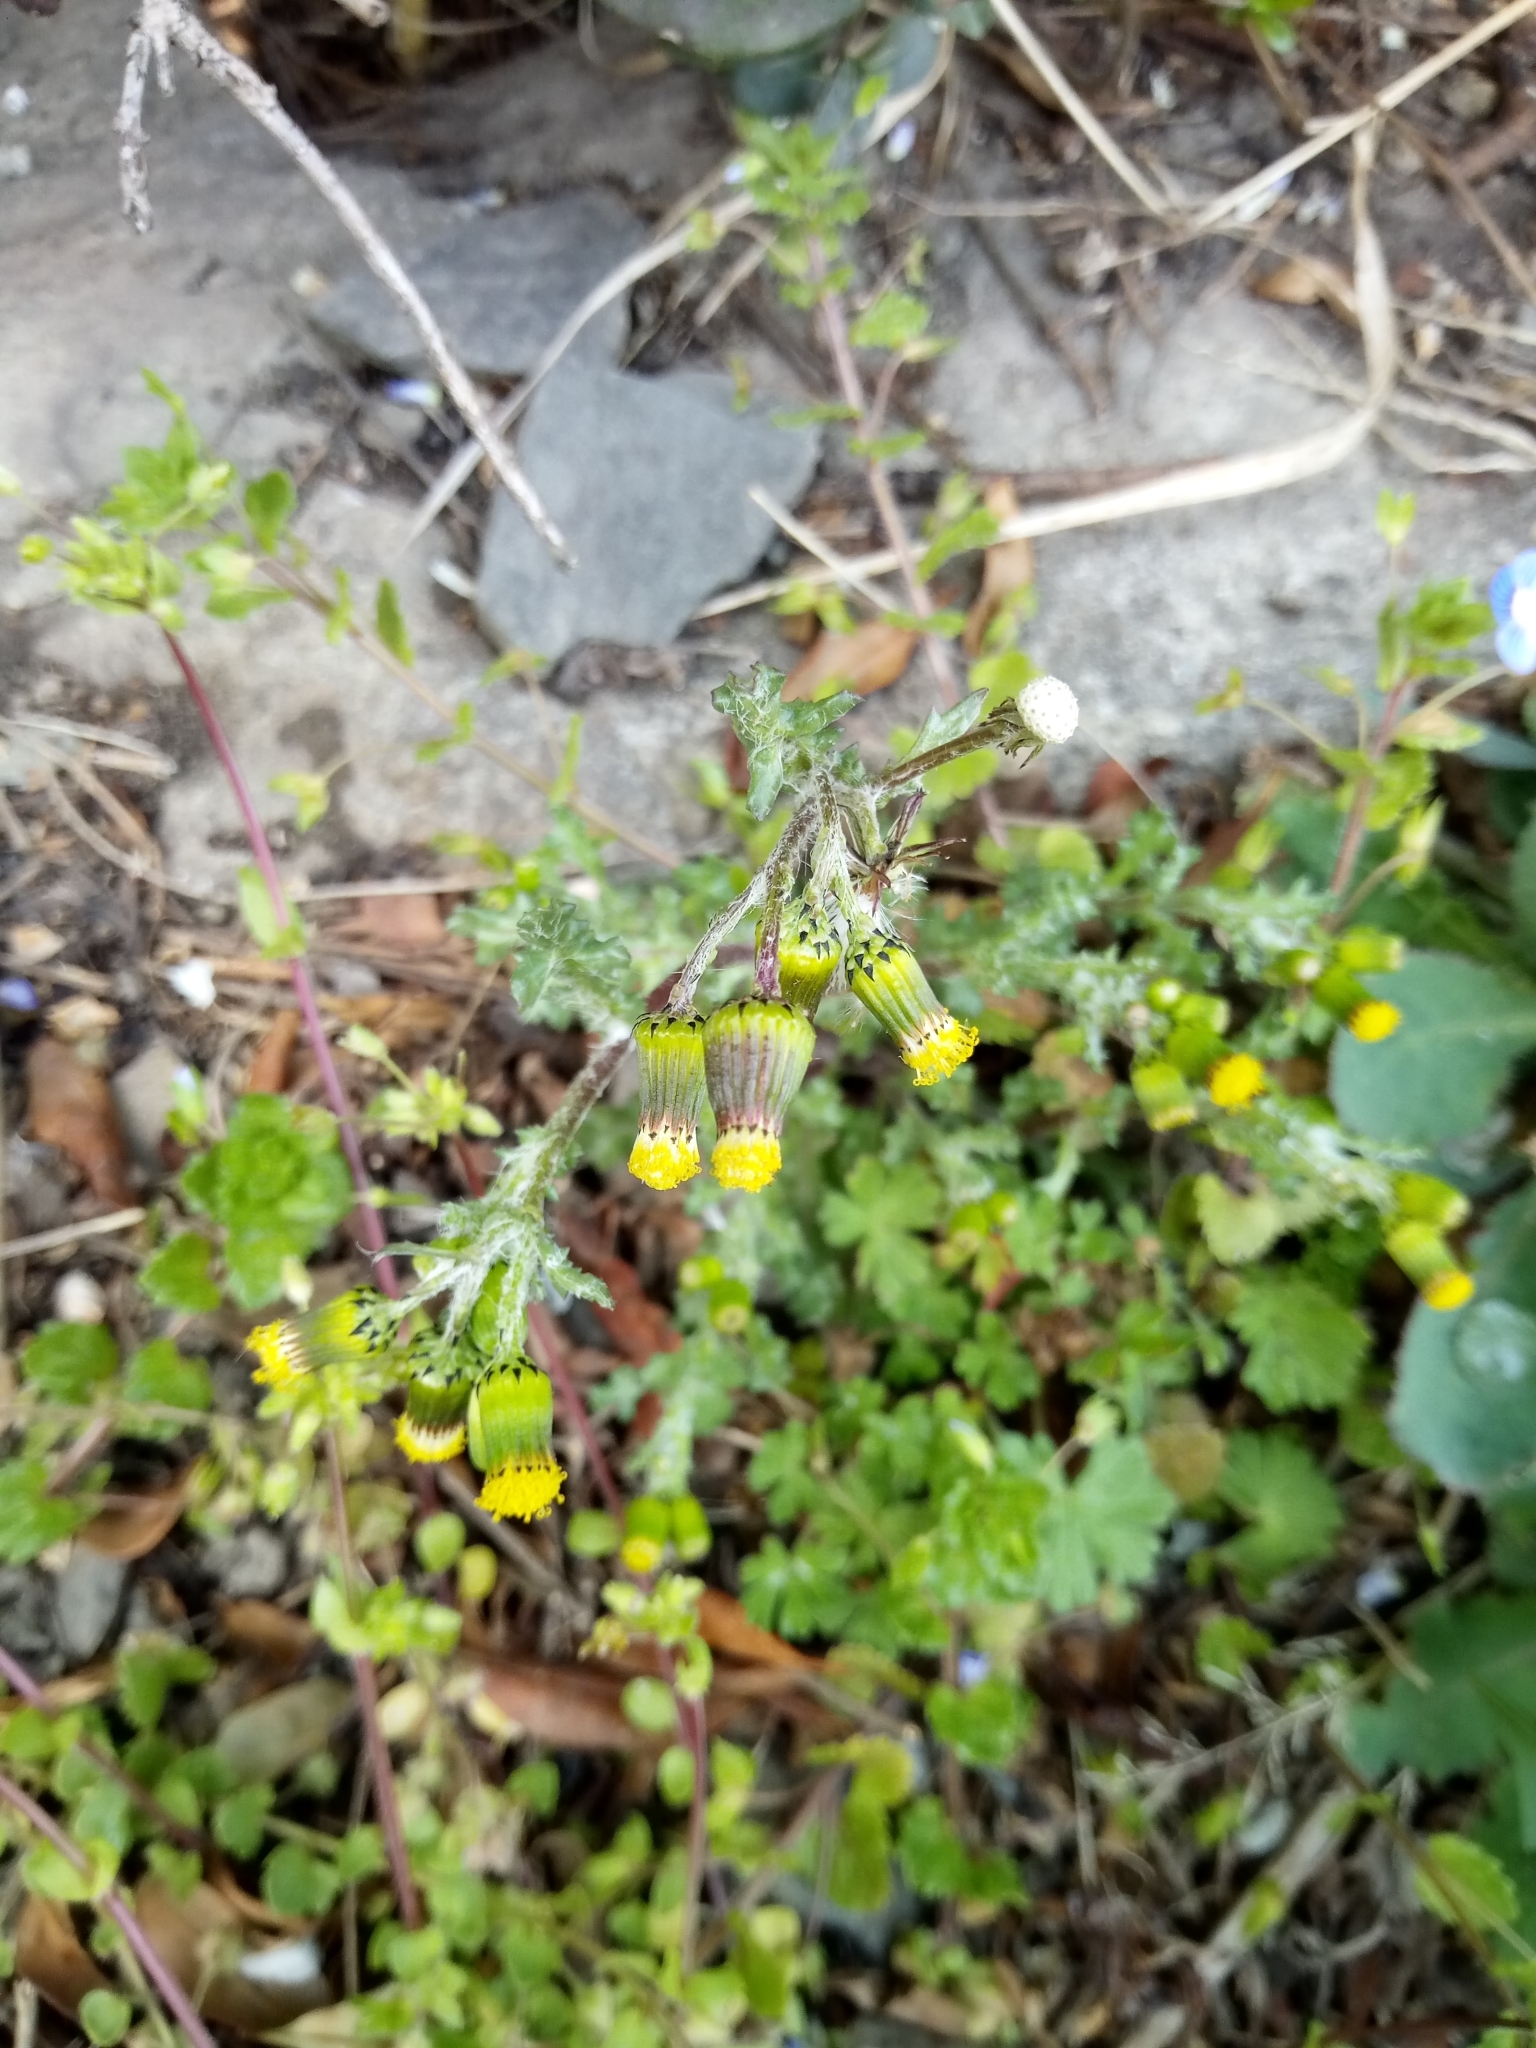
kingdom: Plantae
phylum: Tracheophyta
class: Magnoliopsida
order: Asterales
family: Asteraceae
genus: Senecio
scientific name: Senecio vulgaris
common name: Old-man-in-the-spring
